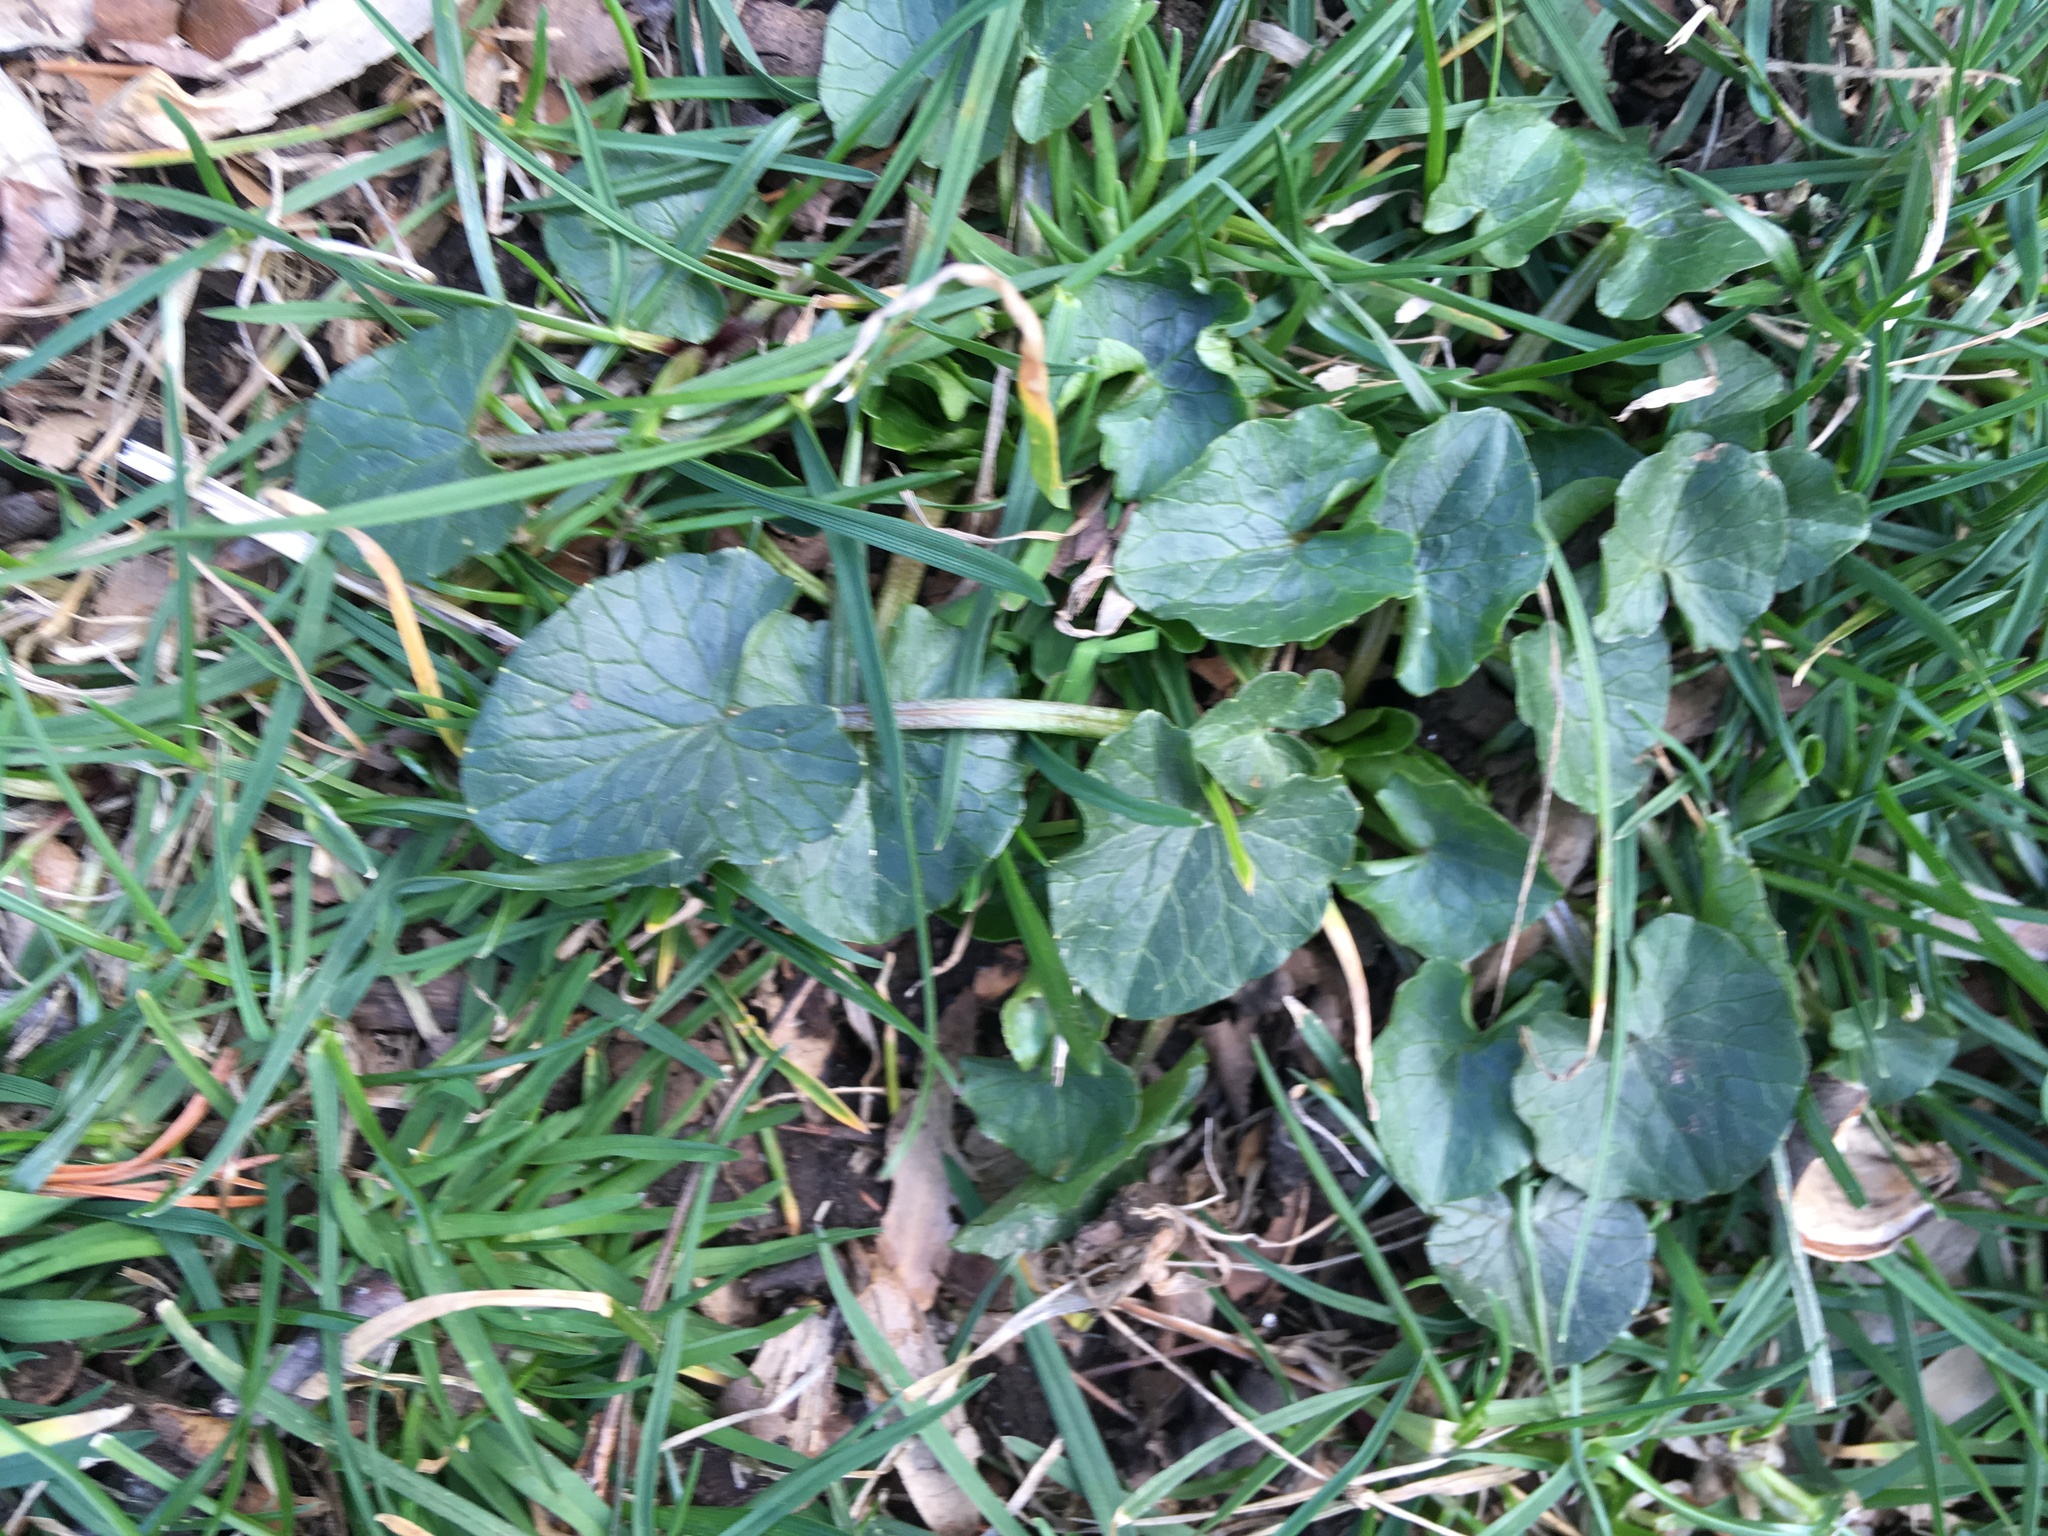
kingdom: Plantae
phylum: Tracheophyta
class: Magnoliopsida
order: Ranunculales
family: Ranunculaceae
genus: Ficaria
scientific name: Ficaria verna
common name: Lesser celandine
